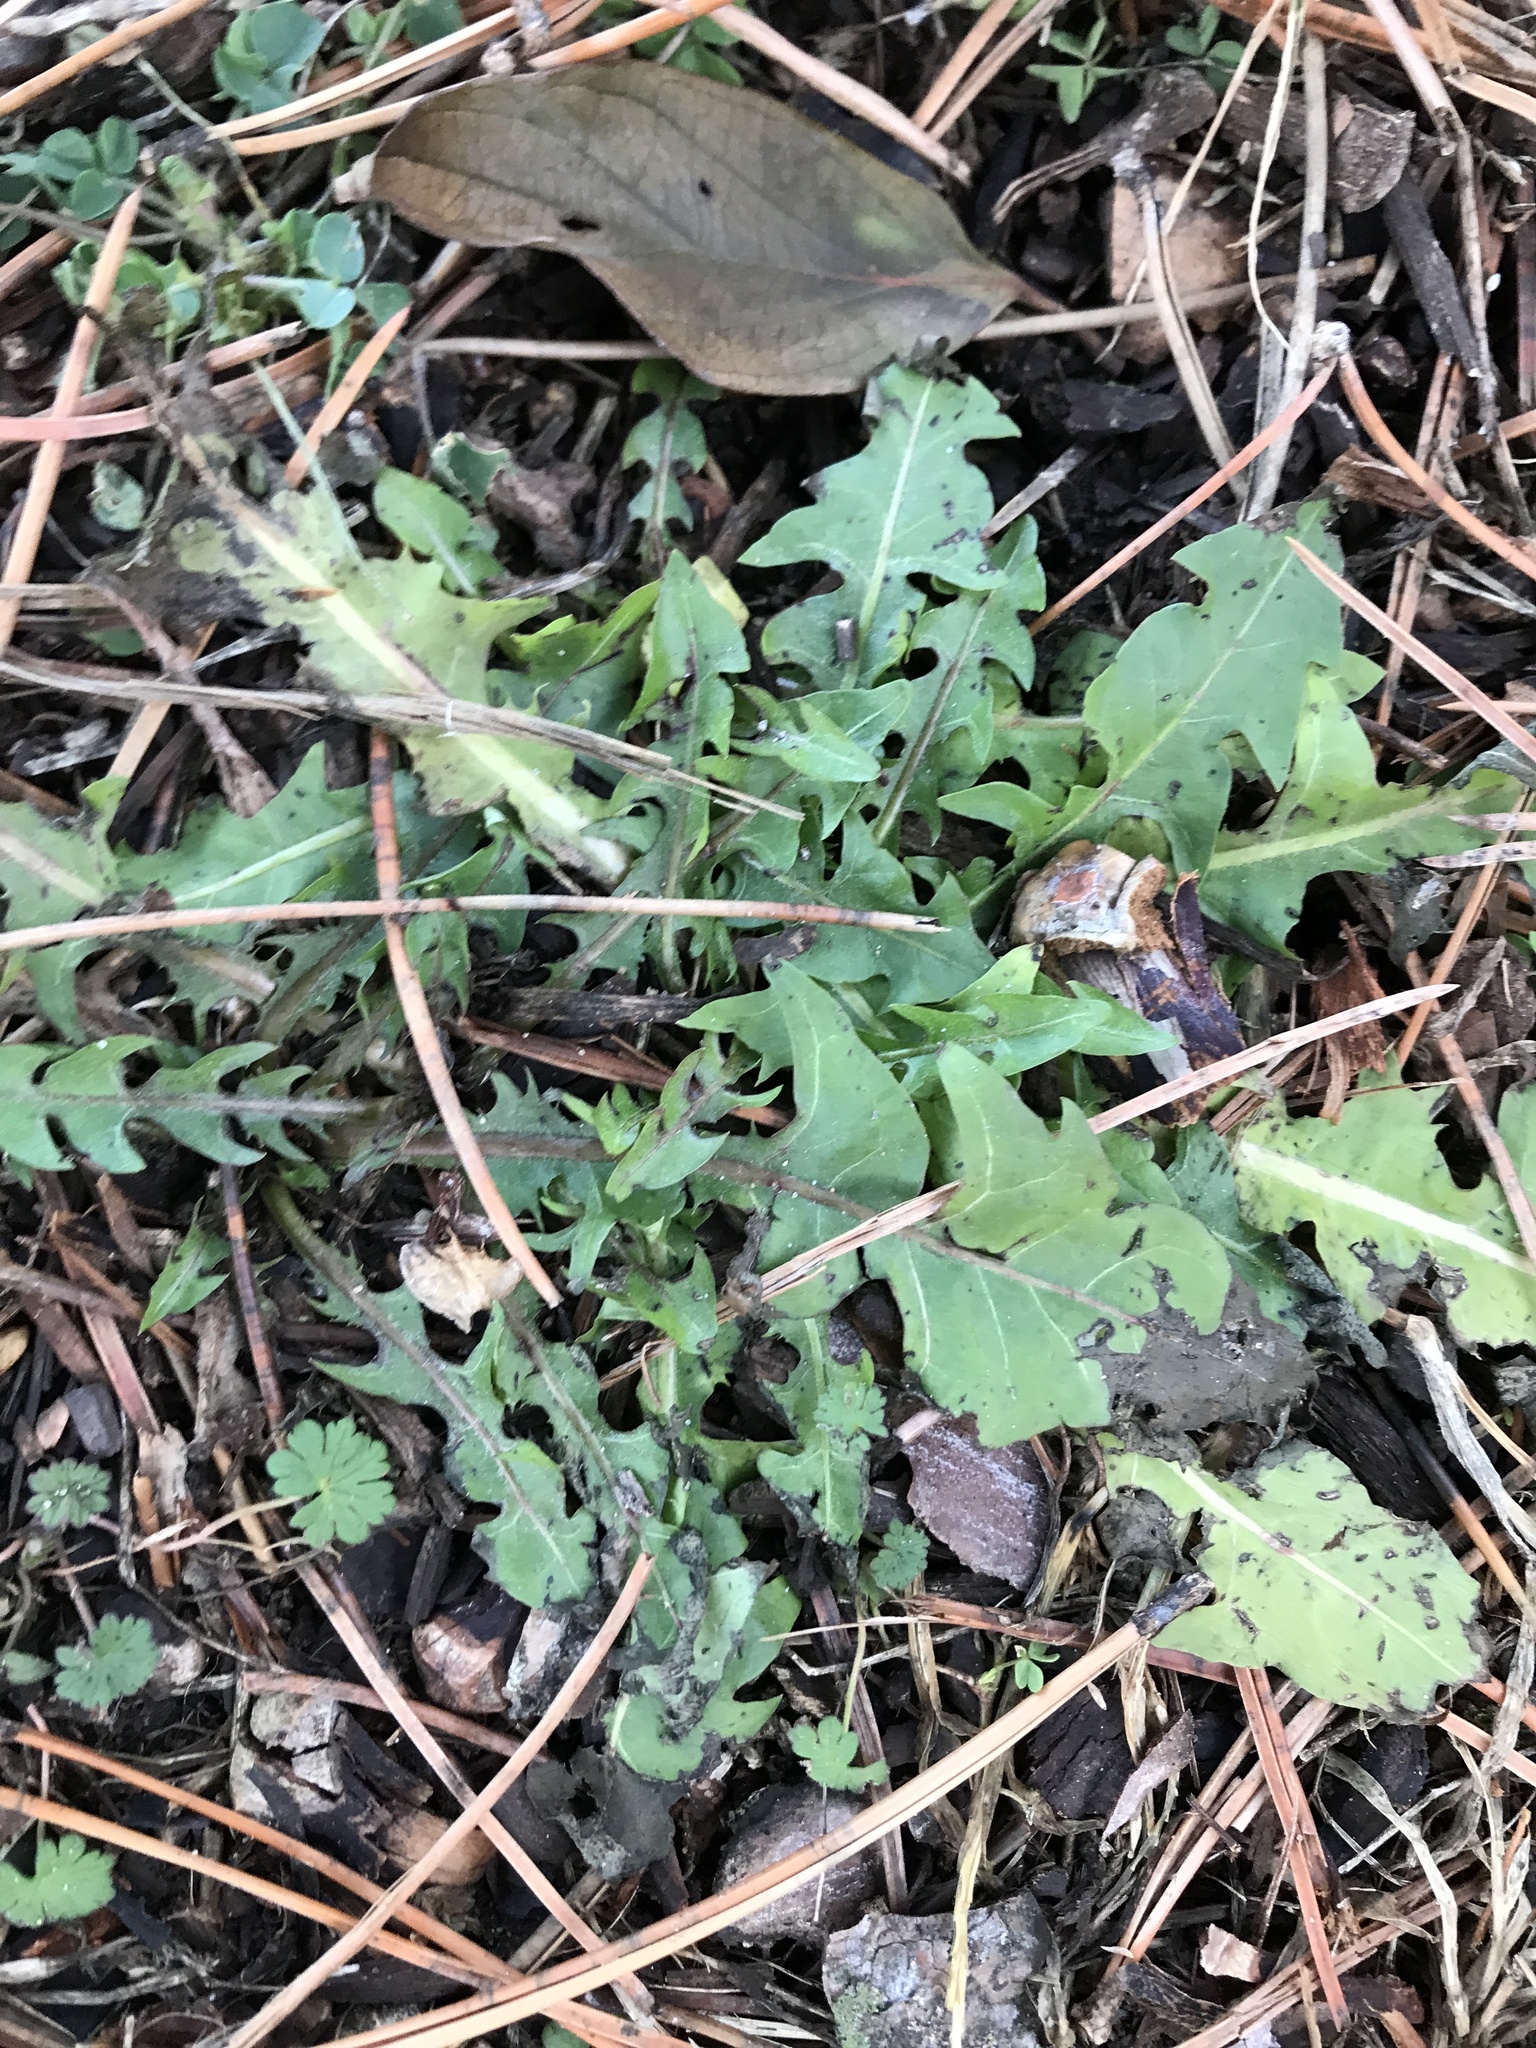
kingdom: Plantae
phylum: Tracheophyta
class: Magnoliopsida
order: Asterales
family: Asteraceae
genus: Taraxacum
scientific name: Taraxacum officinale
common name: Common dandelion
